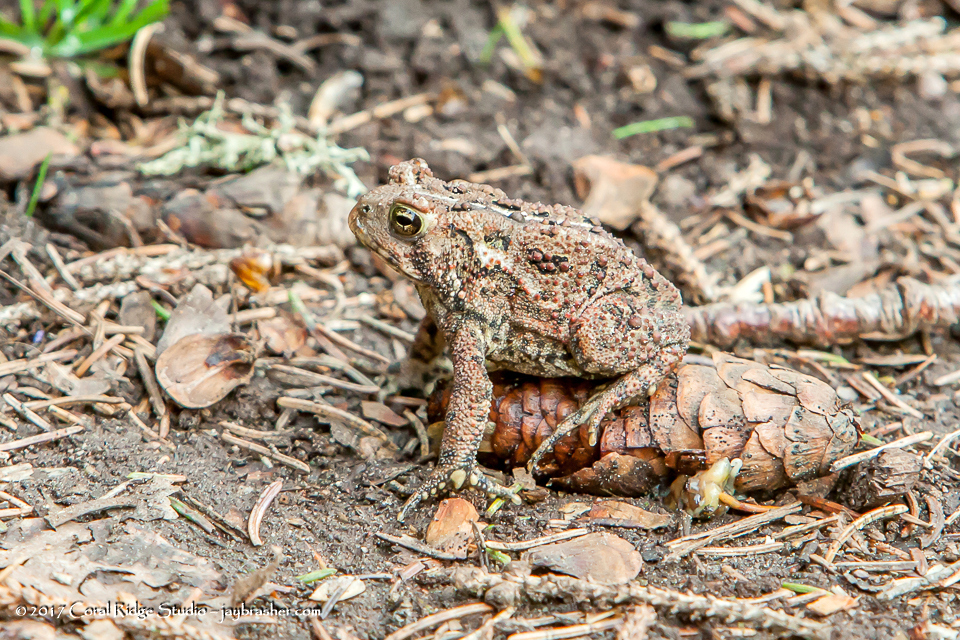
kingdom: Animalia
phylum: Chordata
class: Amphibia
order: Anura
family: Bufonidae
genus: Anaxyrus
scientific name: Anaxyrus americanus
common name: American toad
